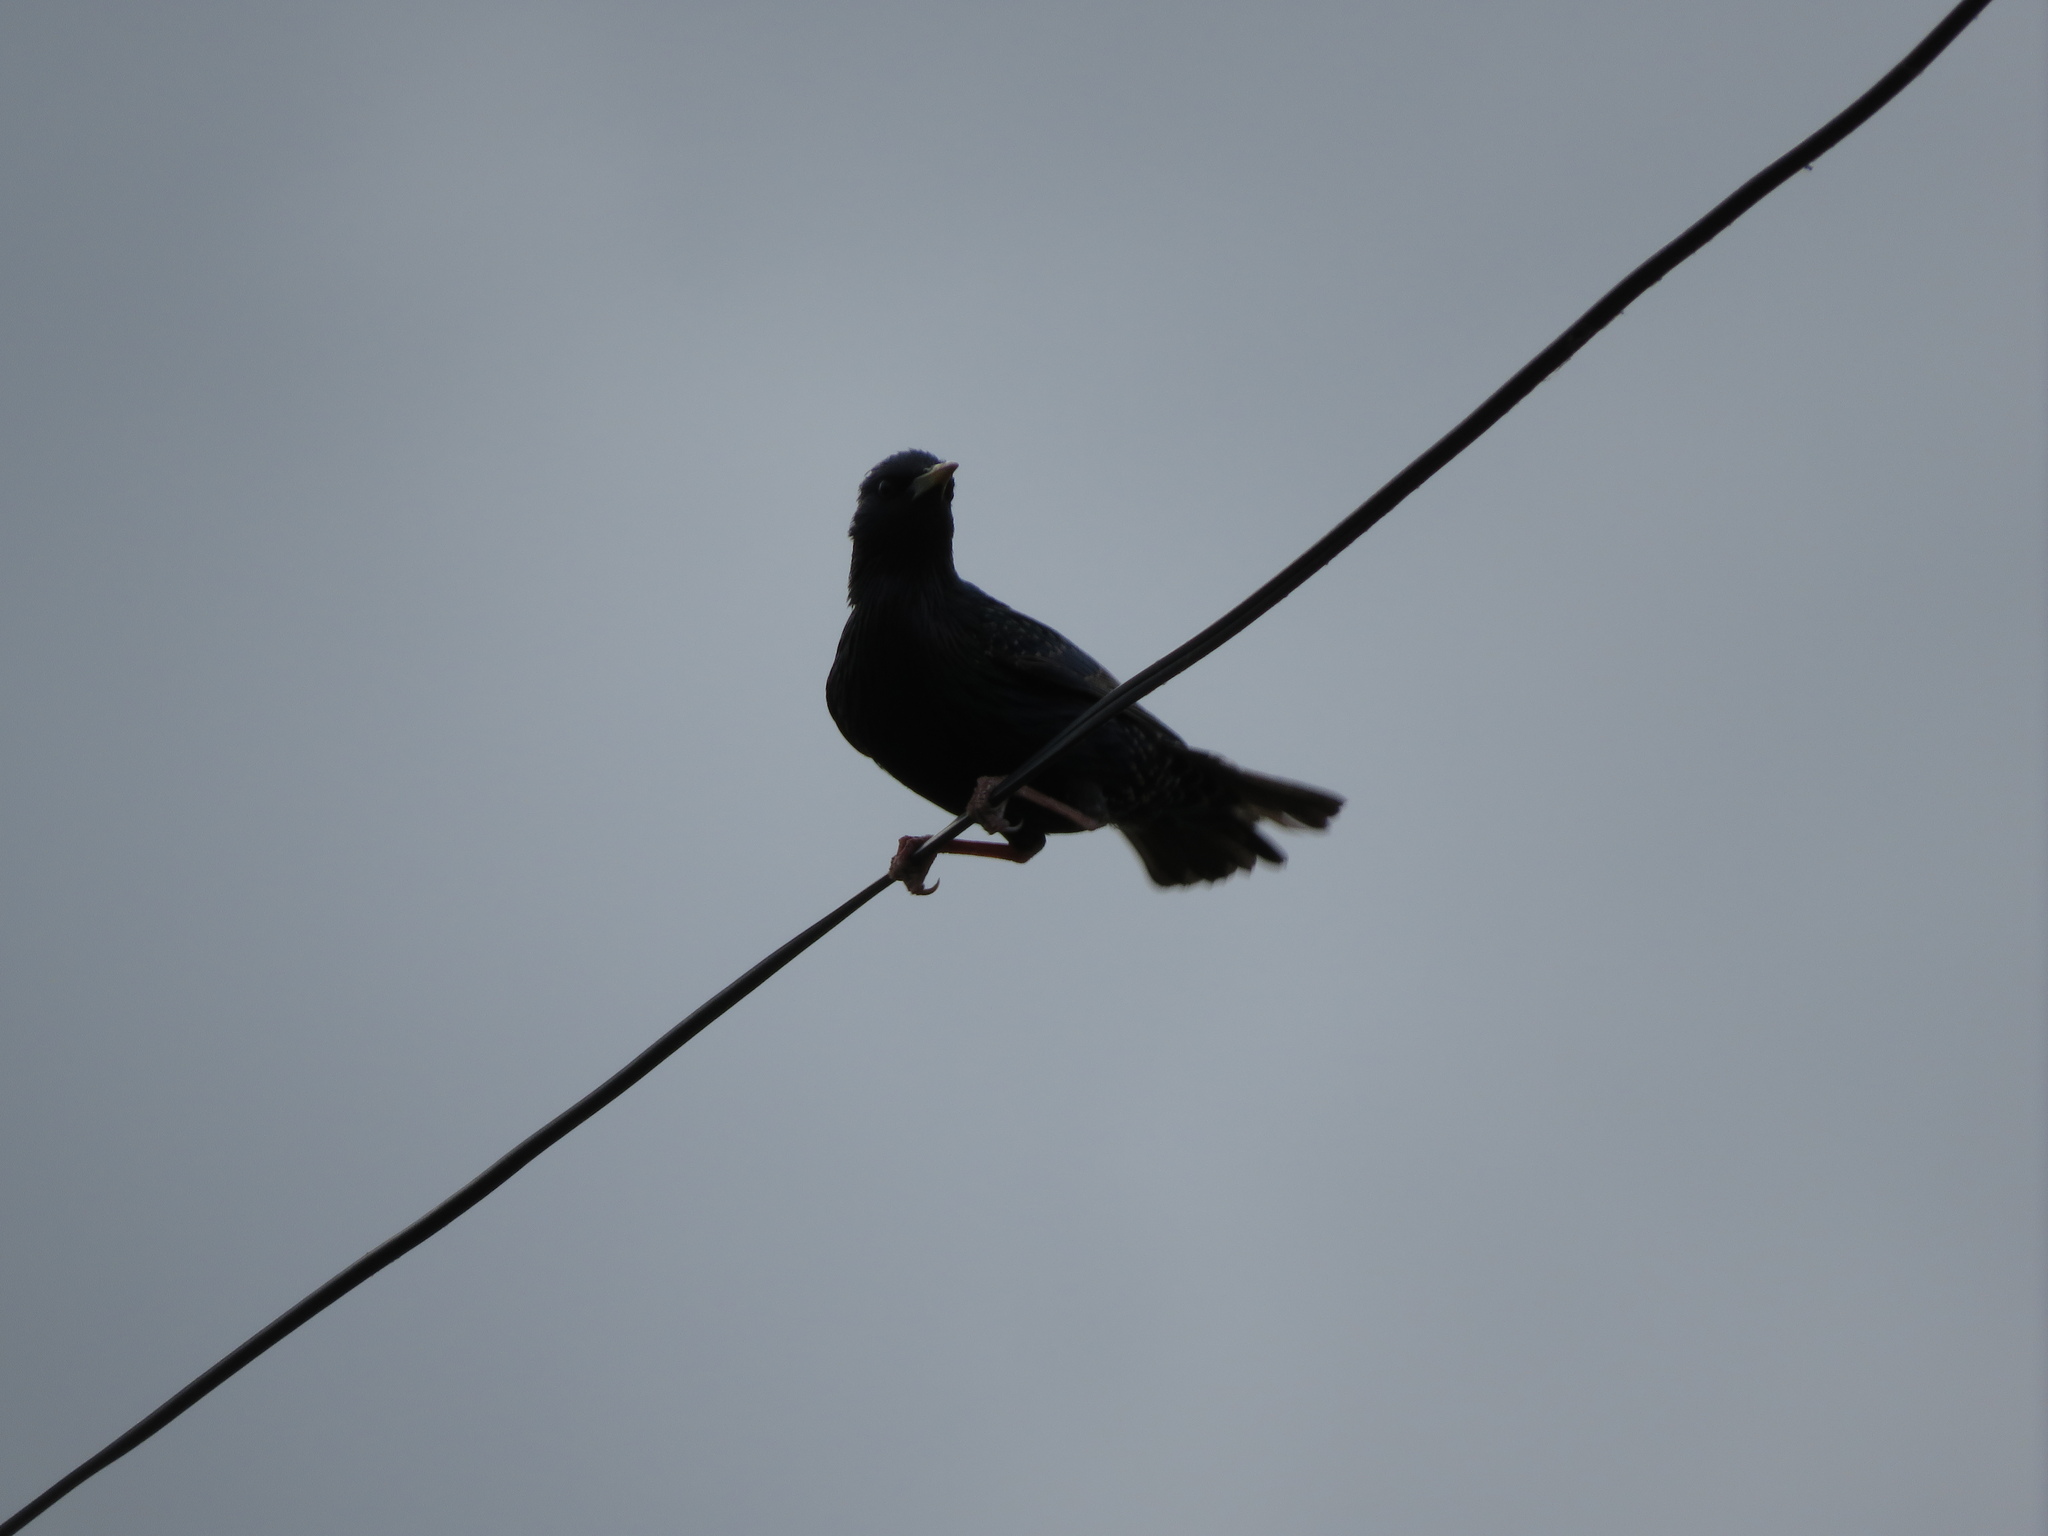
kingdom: Animalia
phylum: Chordata
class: Aves
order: Passeriformes
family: Sturnidae
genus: Sturnus
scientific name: Sturnus vulgaris
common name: Common starling
